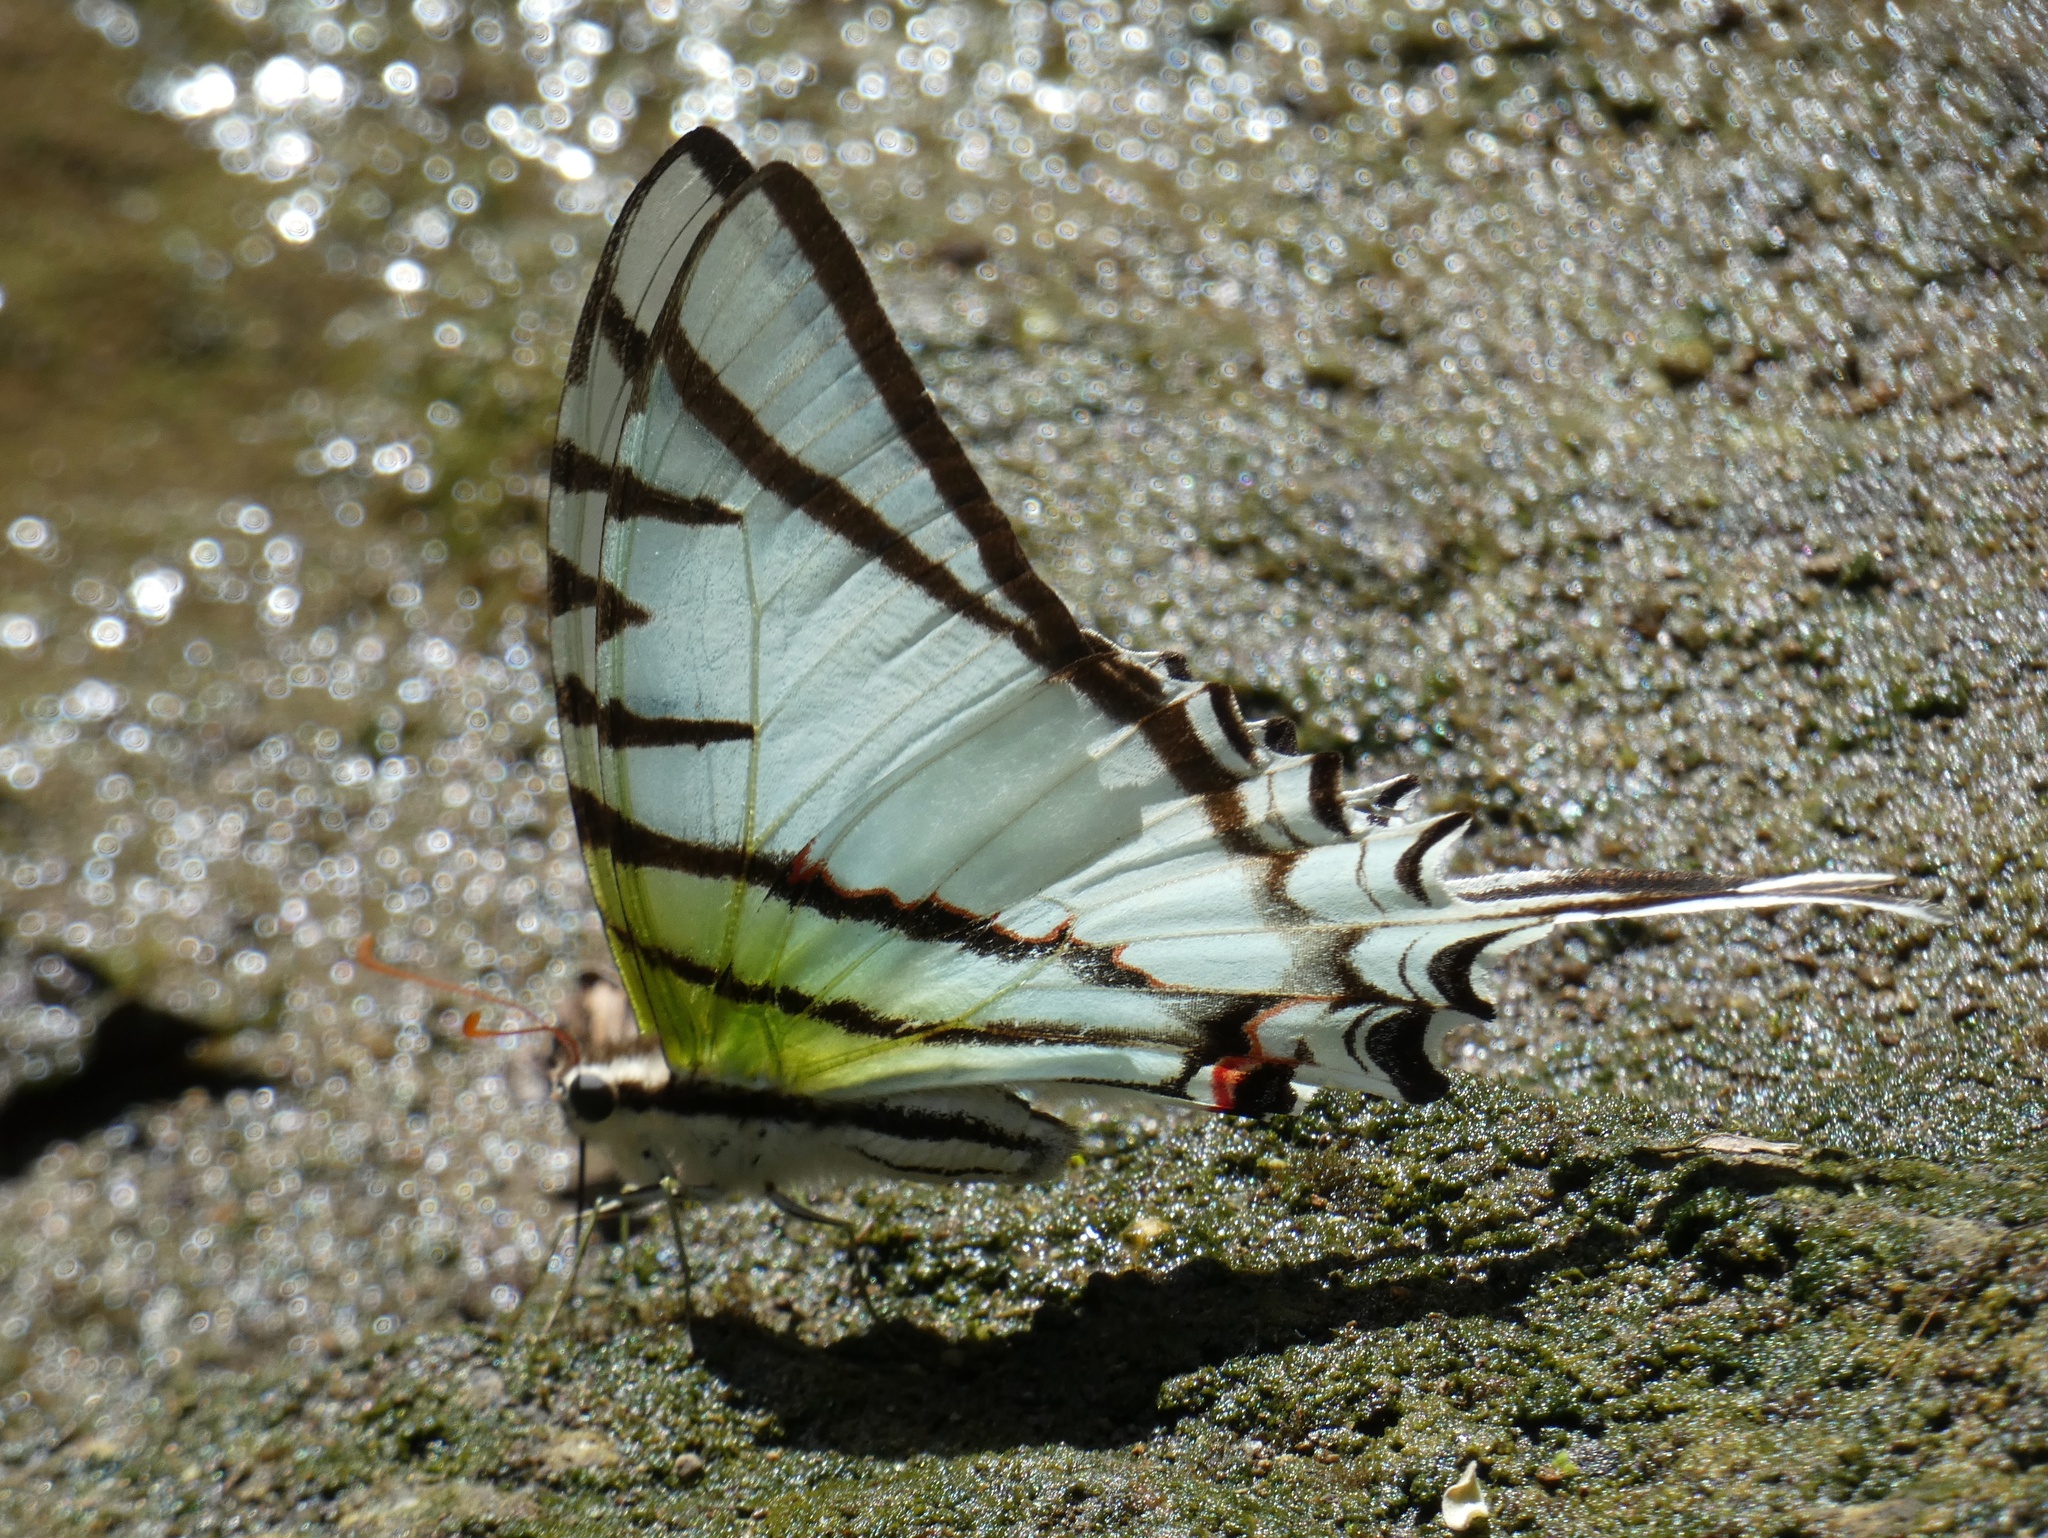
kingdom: Animalia
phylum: Arthropoda
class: Insecta
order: Lepidoptera
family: Papilionidae
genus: Eurytides
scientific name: Eurytides
